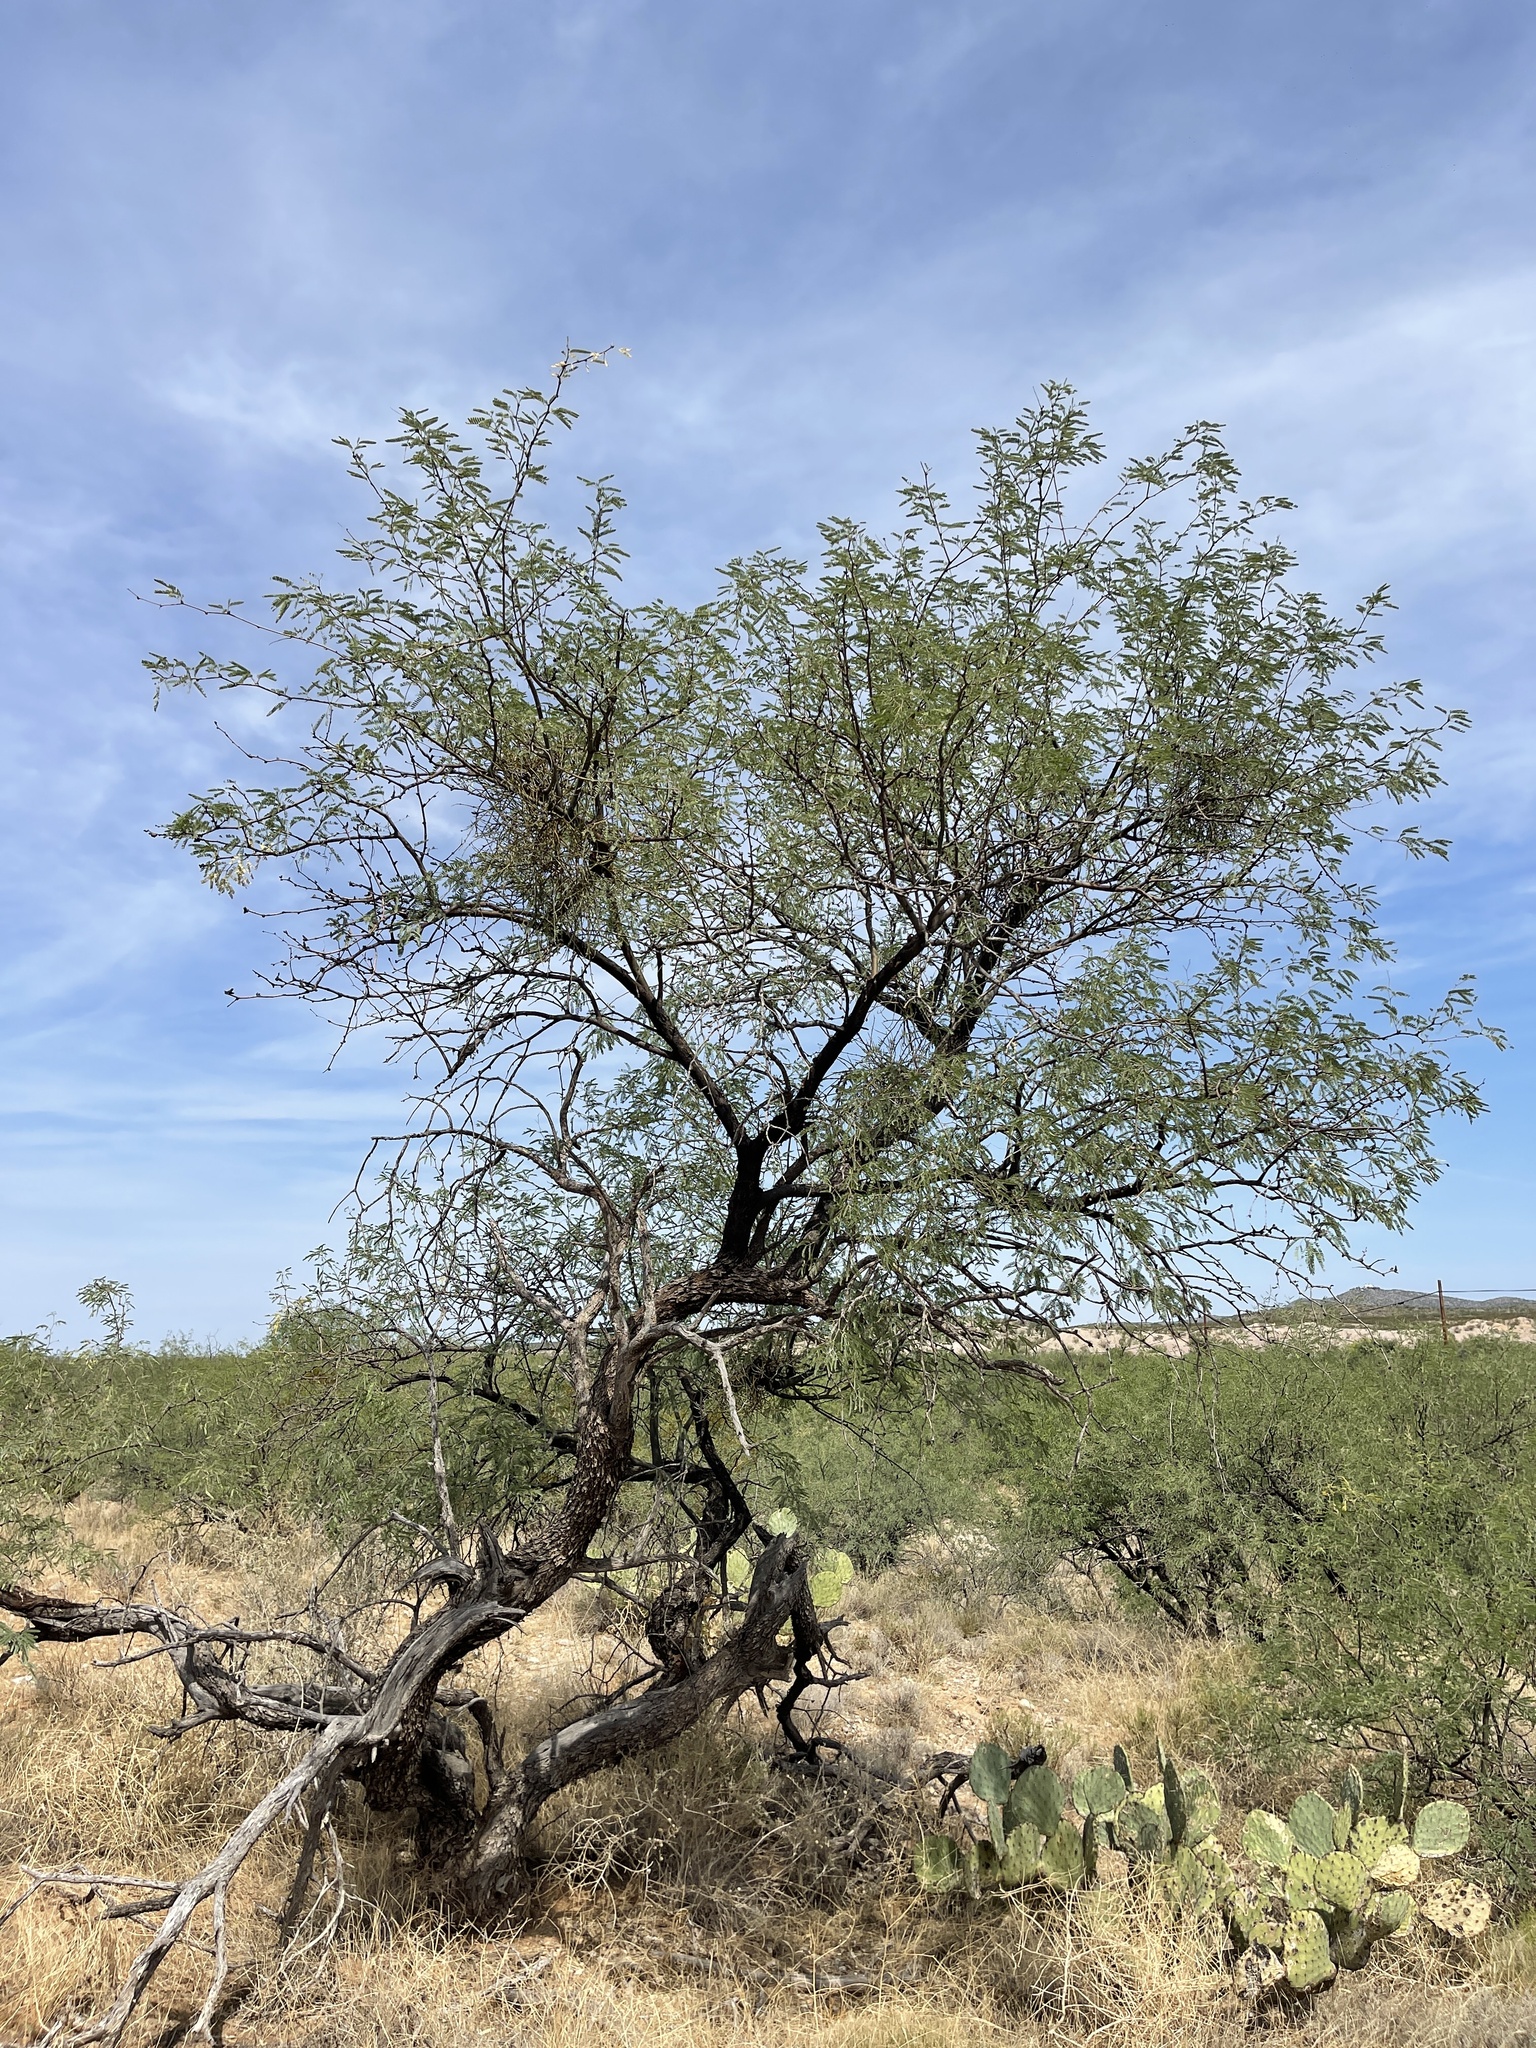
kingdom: Plantae
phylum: Tracheophyta
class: Magnoliopsida
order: Fabales
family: Fabaceae
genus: Prosopis
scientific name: Prosopis velutina
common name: Velvet mesquite
